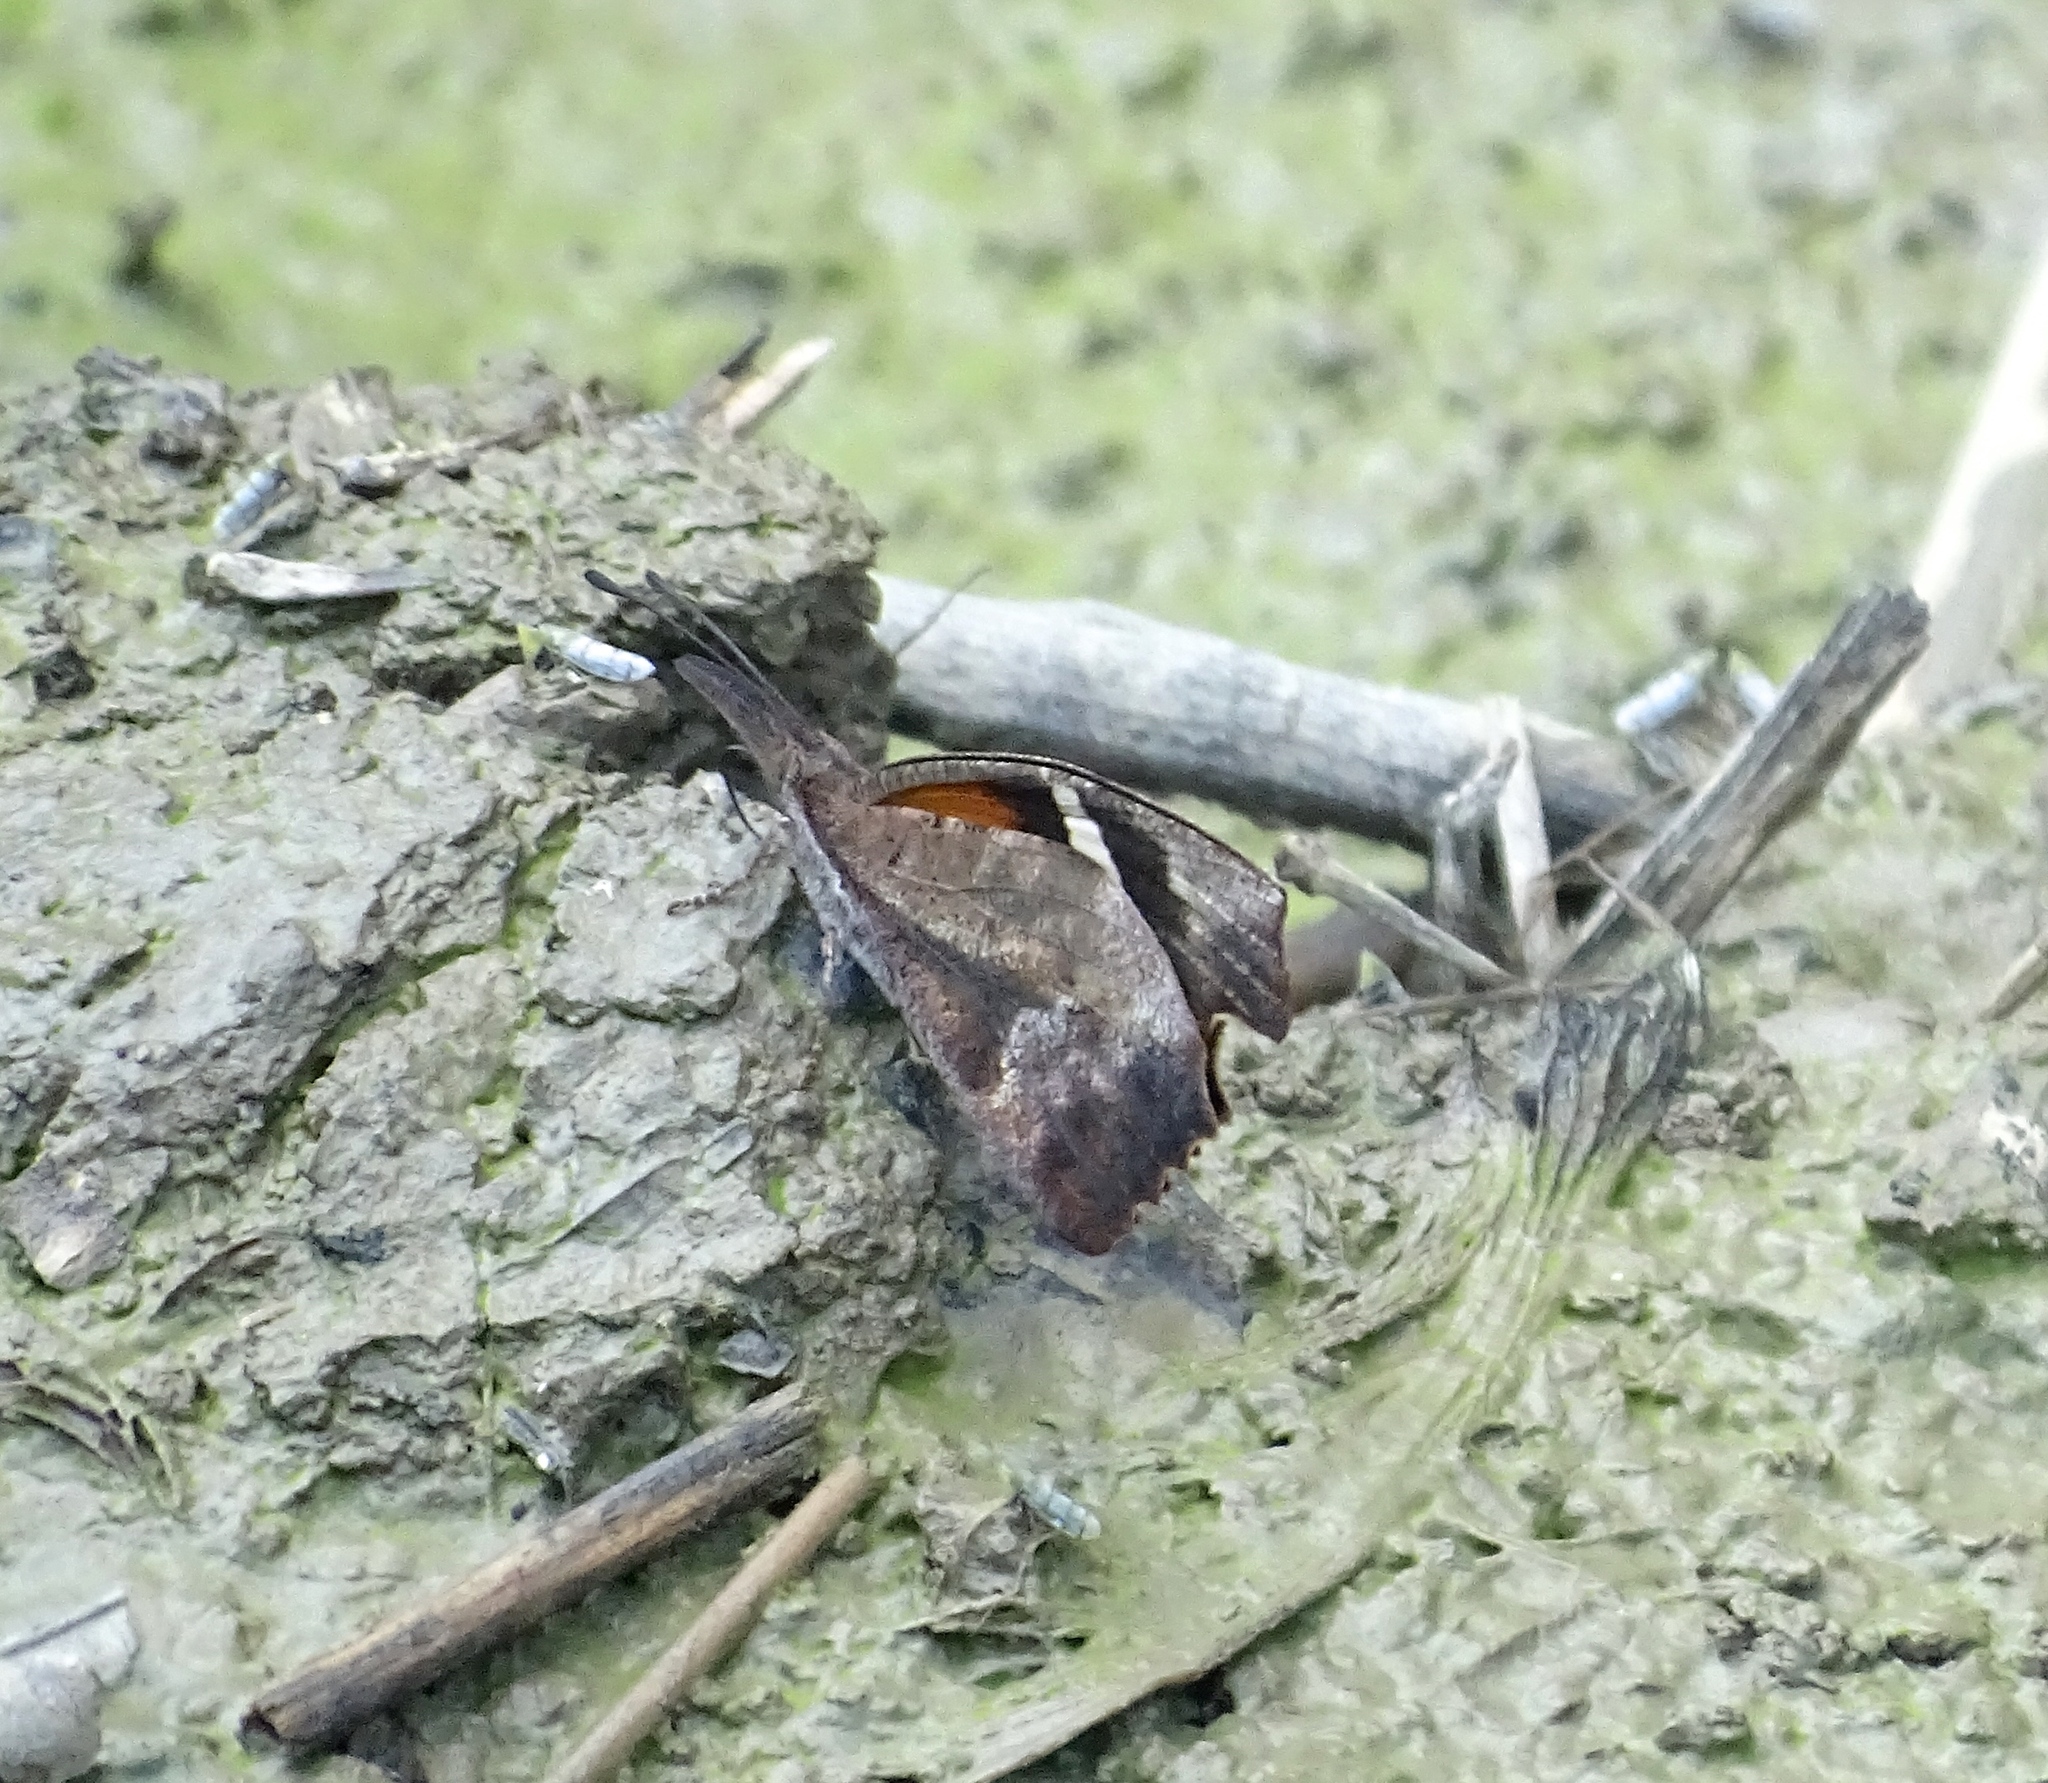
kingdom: Animalia
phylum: Arthropoda
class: Insecta
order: Lepidoptera
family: Nymphalidae
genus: Libytheana
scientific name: Libytheana carinenta
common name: American snout
